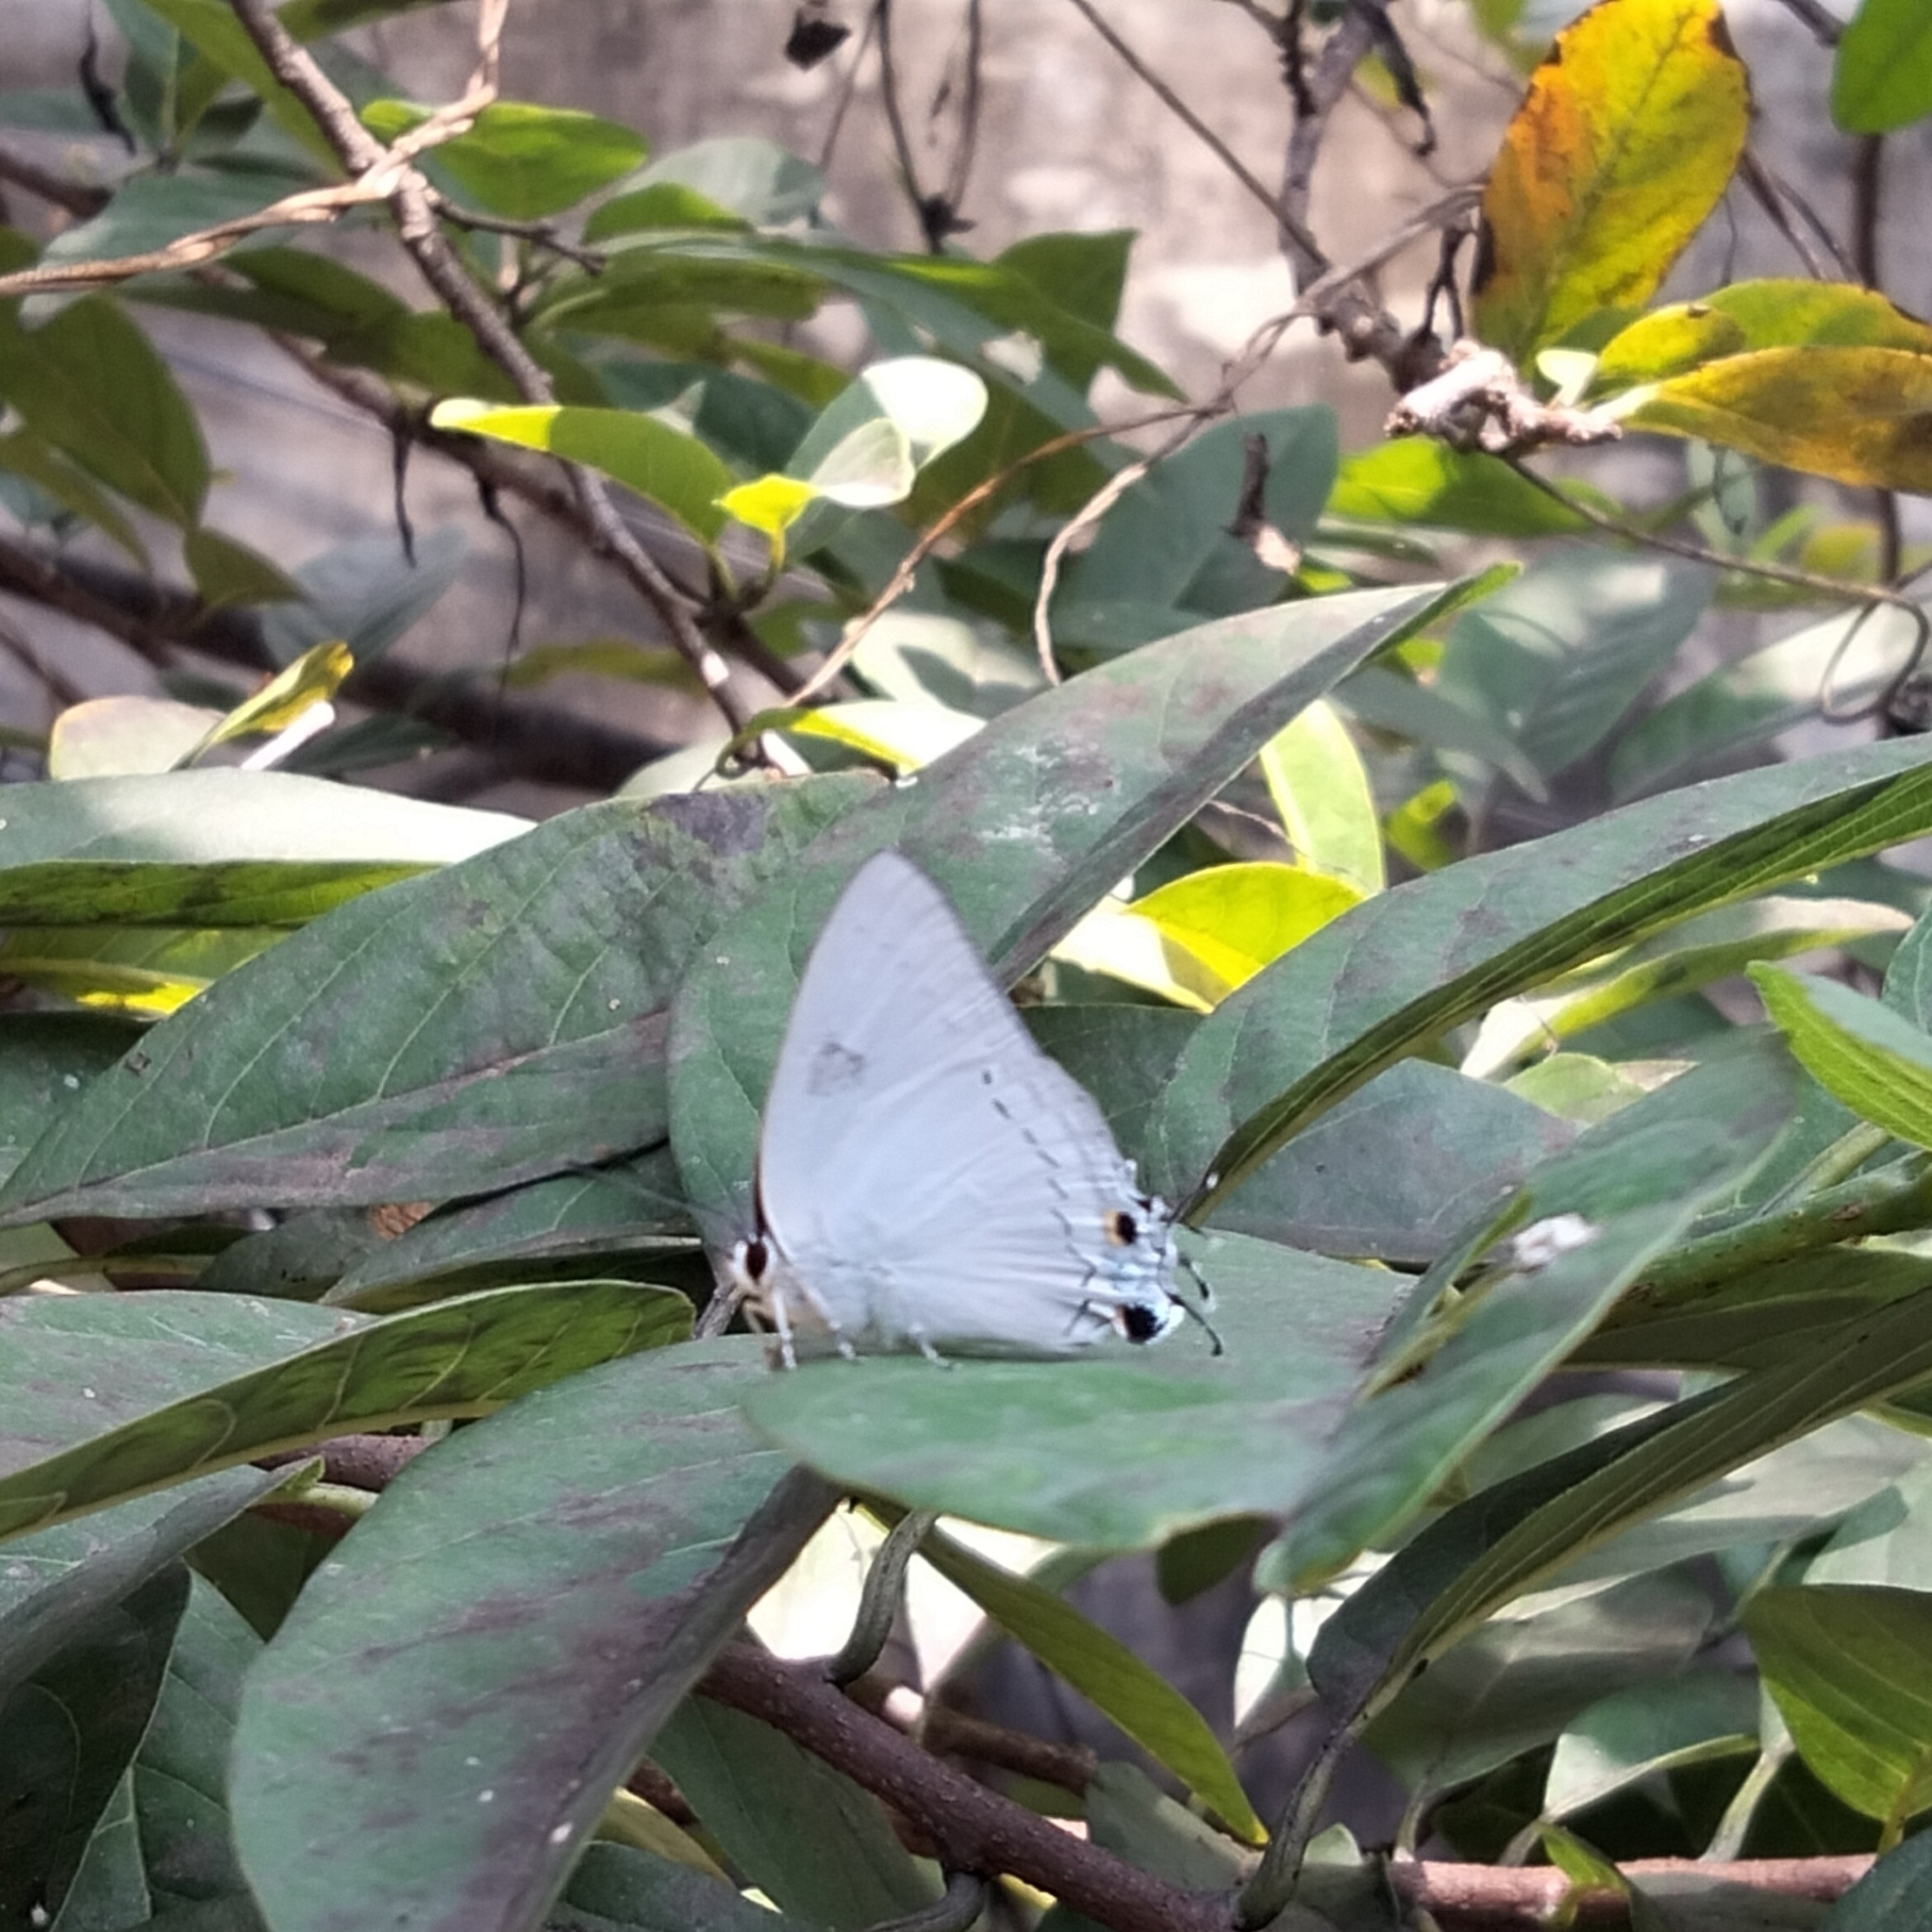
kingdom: Animalia
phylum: Arthropoda
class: Insecta
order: Lepidoptera
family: Lycaenidae
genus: Tajuria
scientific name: Tajuria cippus
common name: Peacock royal
